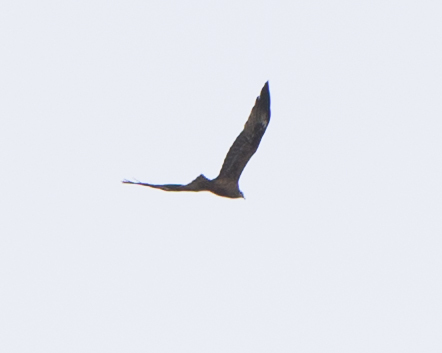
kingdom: Animalia
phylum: Chordata
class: Aves
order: Accipitriformes
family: Accipitridae
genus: Milvus
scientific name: Milvus migrans
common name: Black kite
